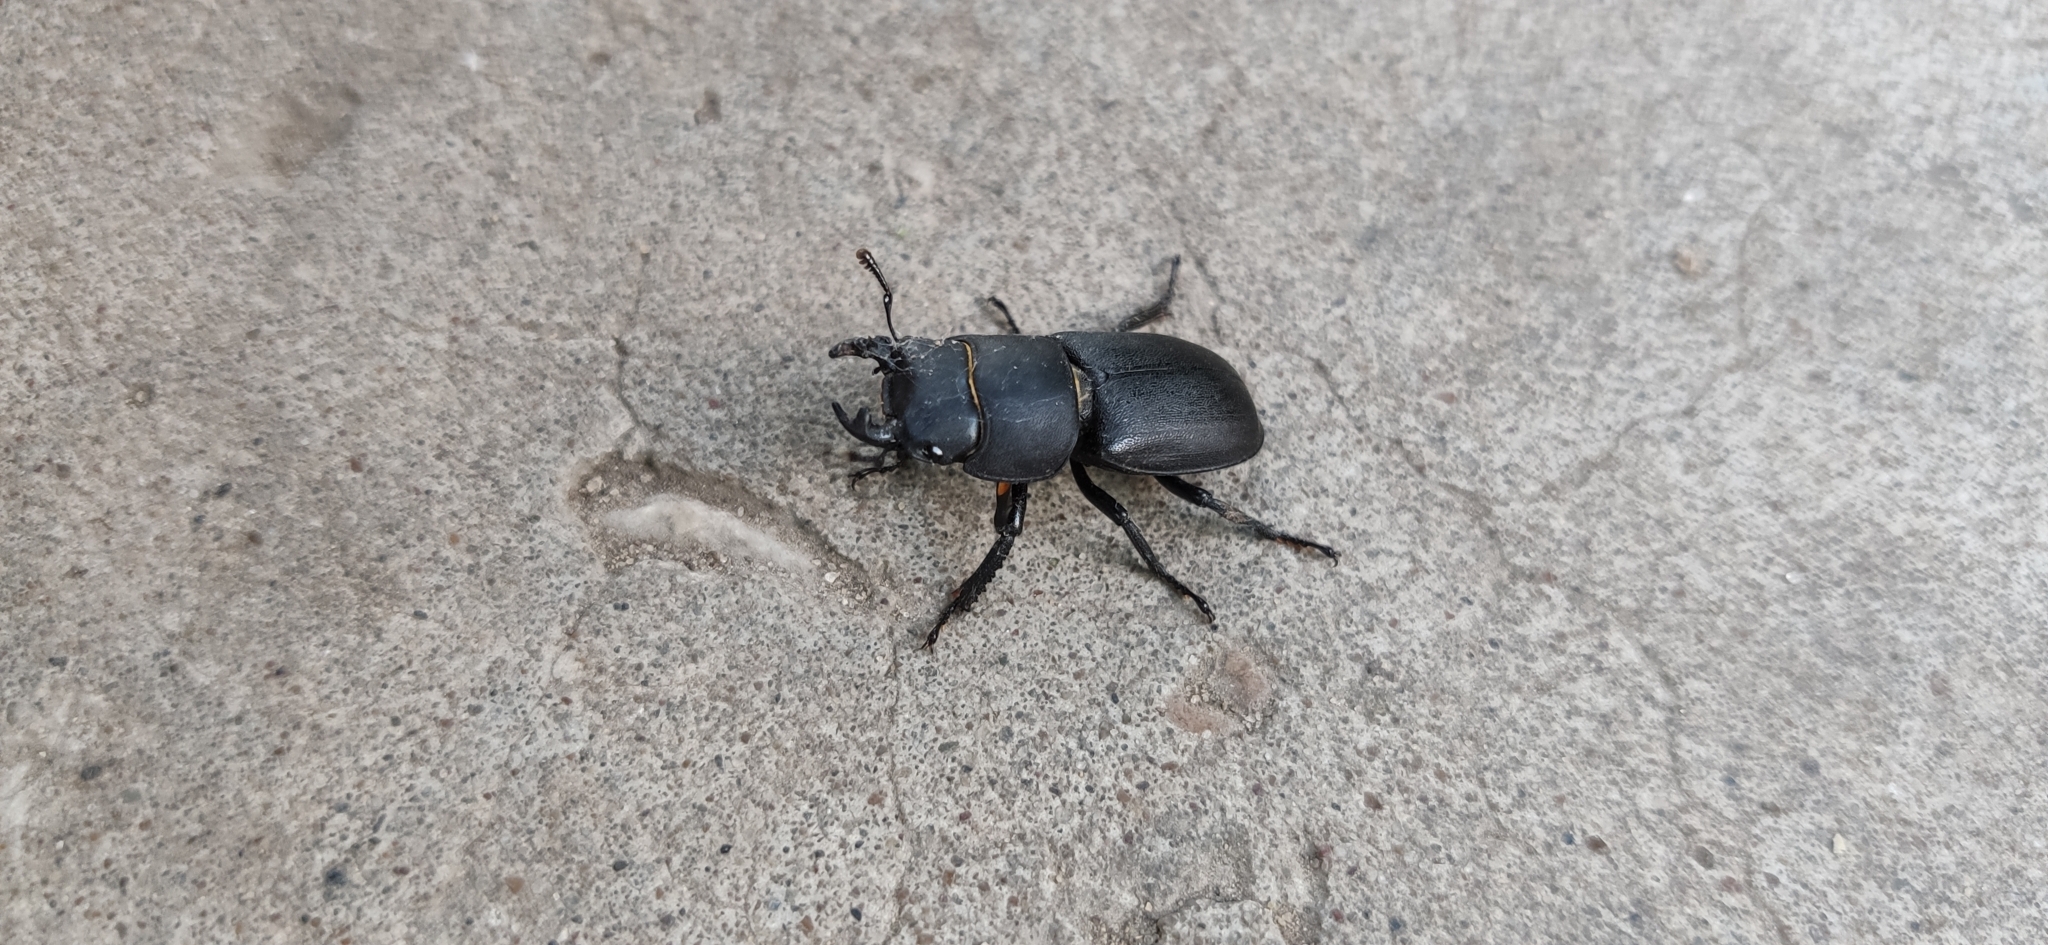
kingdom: Animalia
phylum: Arthropoda
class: Insecta
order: Coleoptera
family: Lucanidae
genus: Dorcus
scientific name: Dorcus parallelipipedus
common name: Lesser stag beetle
